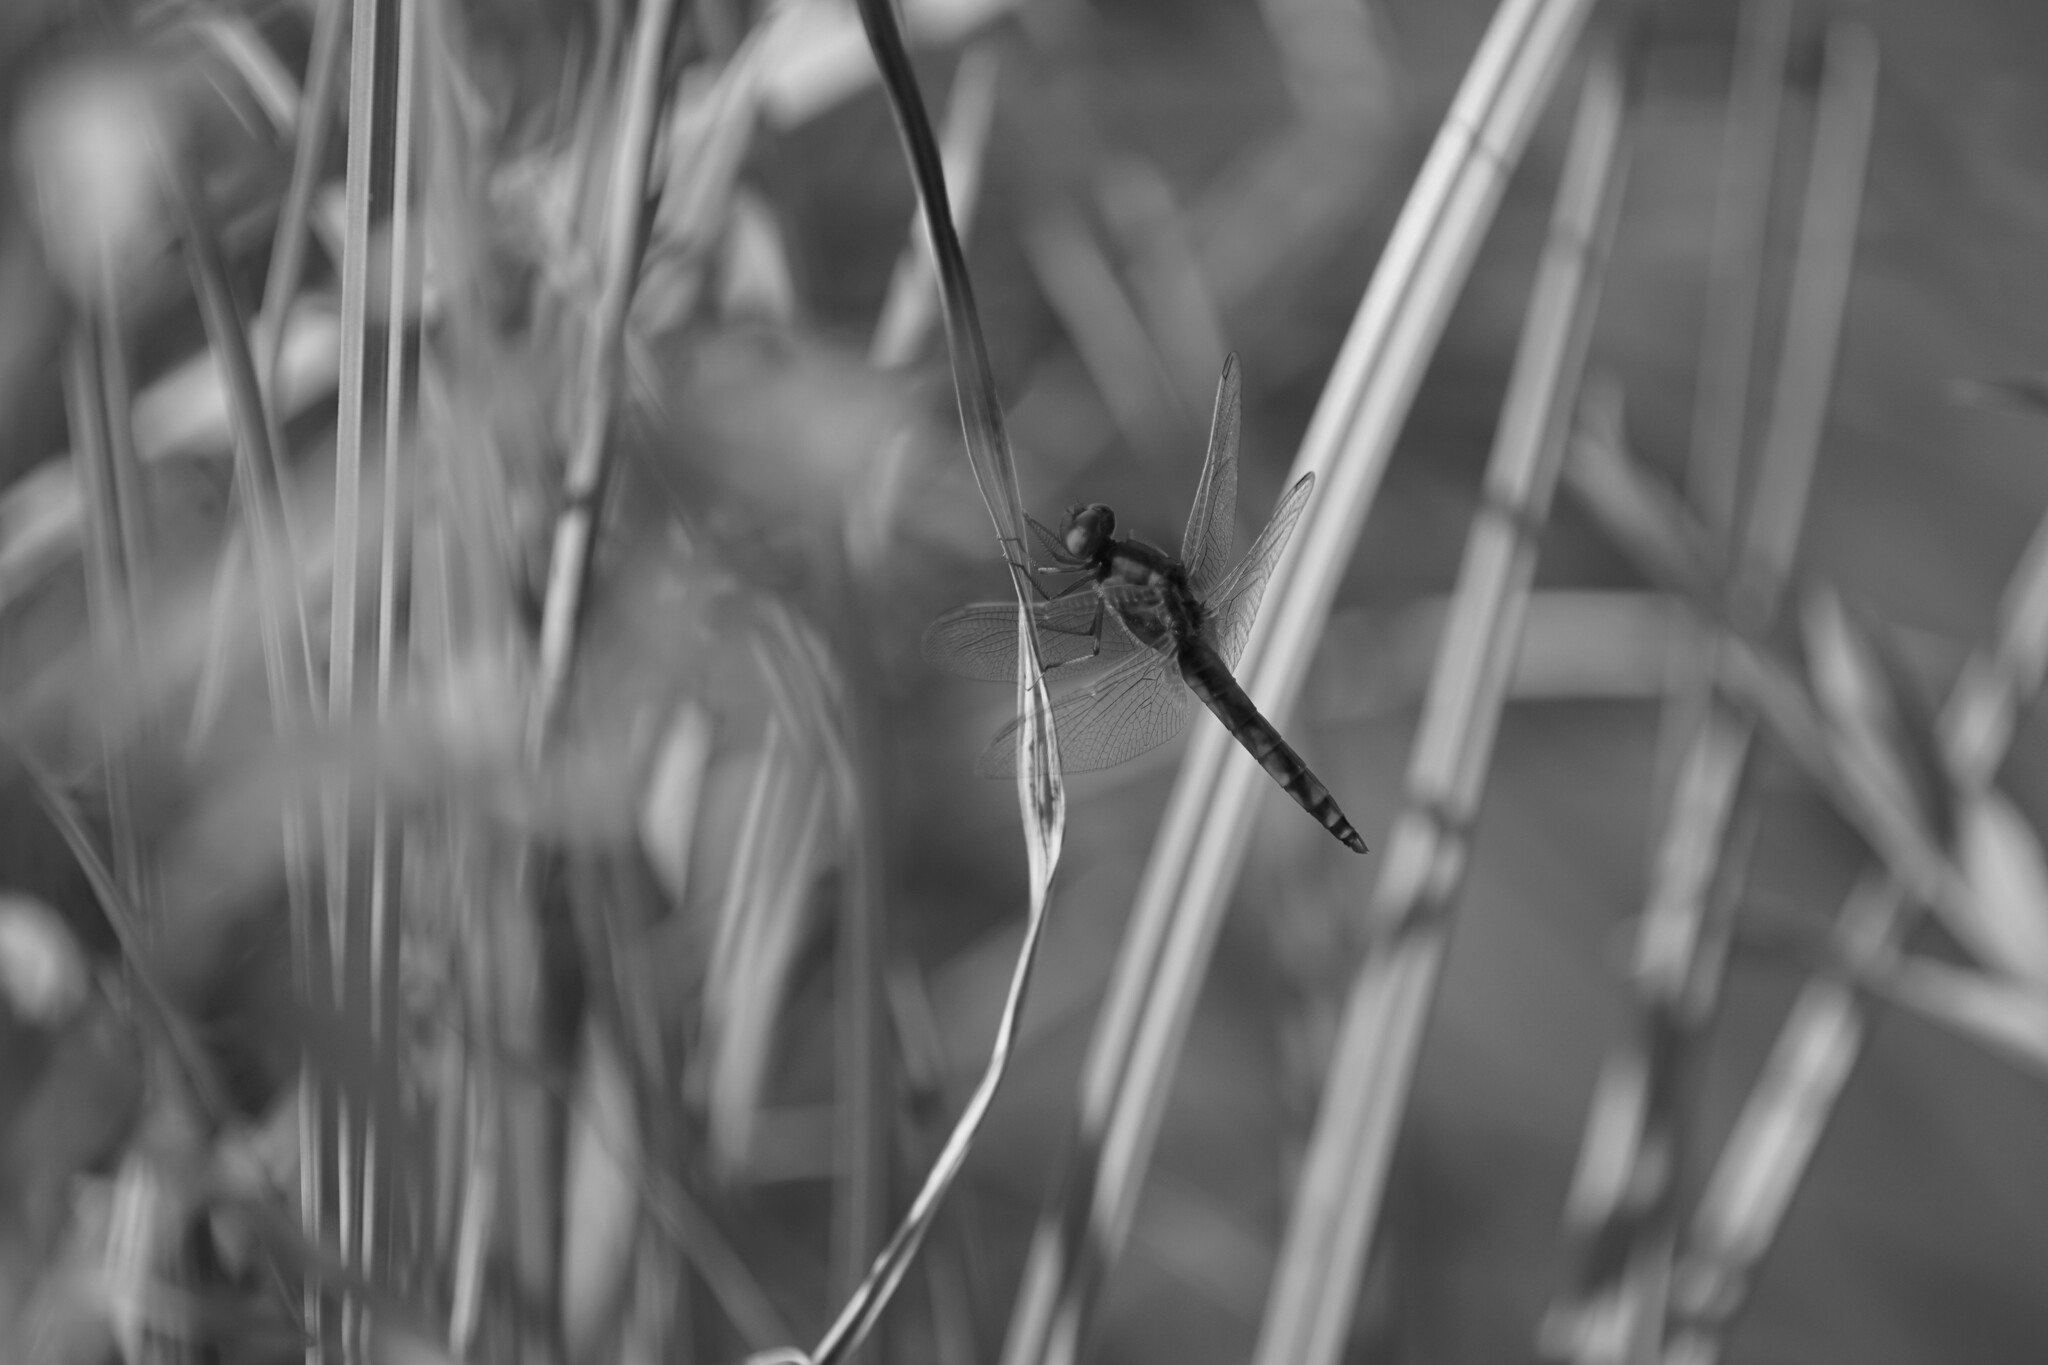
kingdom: Animalia
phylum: Arthropoda
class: Insecta
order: Odonata
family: Libellulidae
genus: Crocothemis
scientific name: Crocothemis erythraea
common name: Scarlet dragonfly
